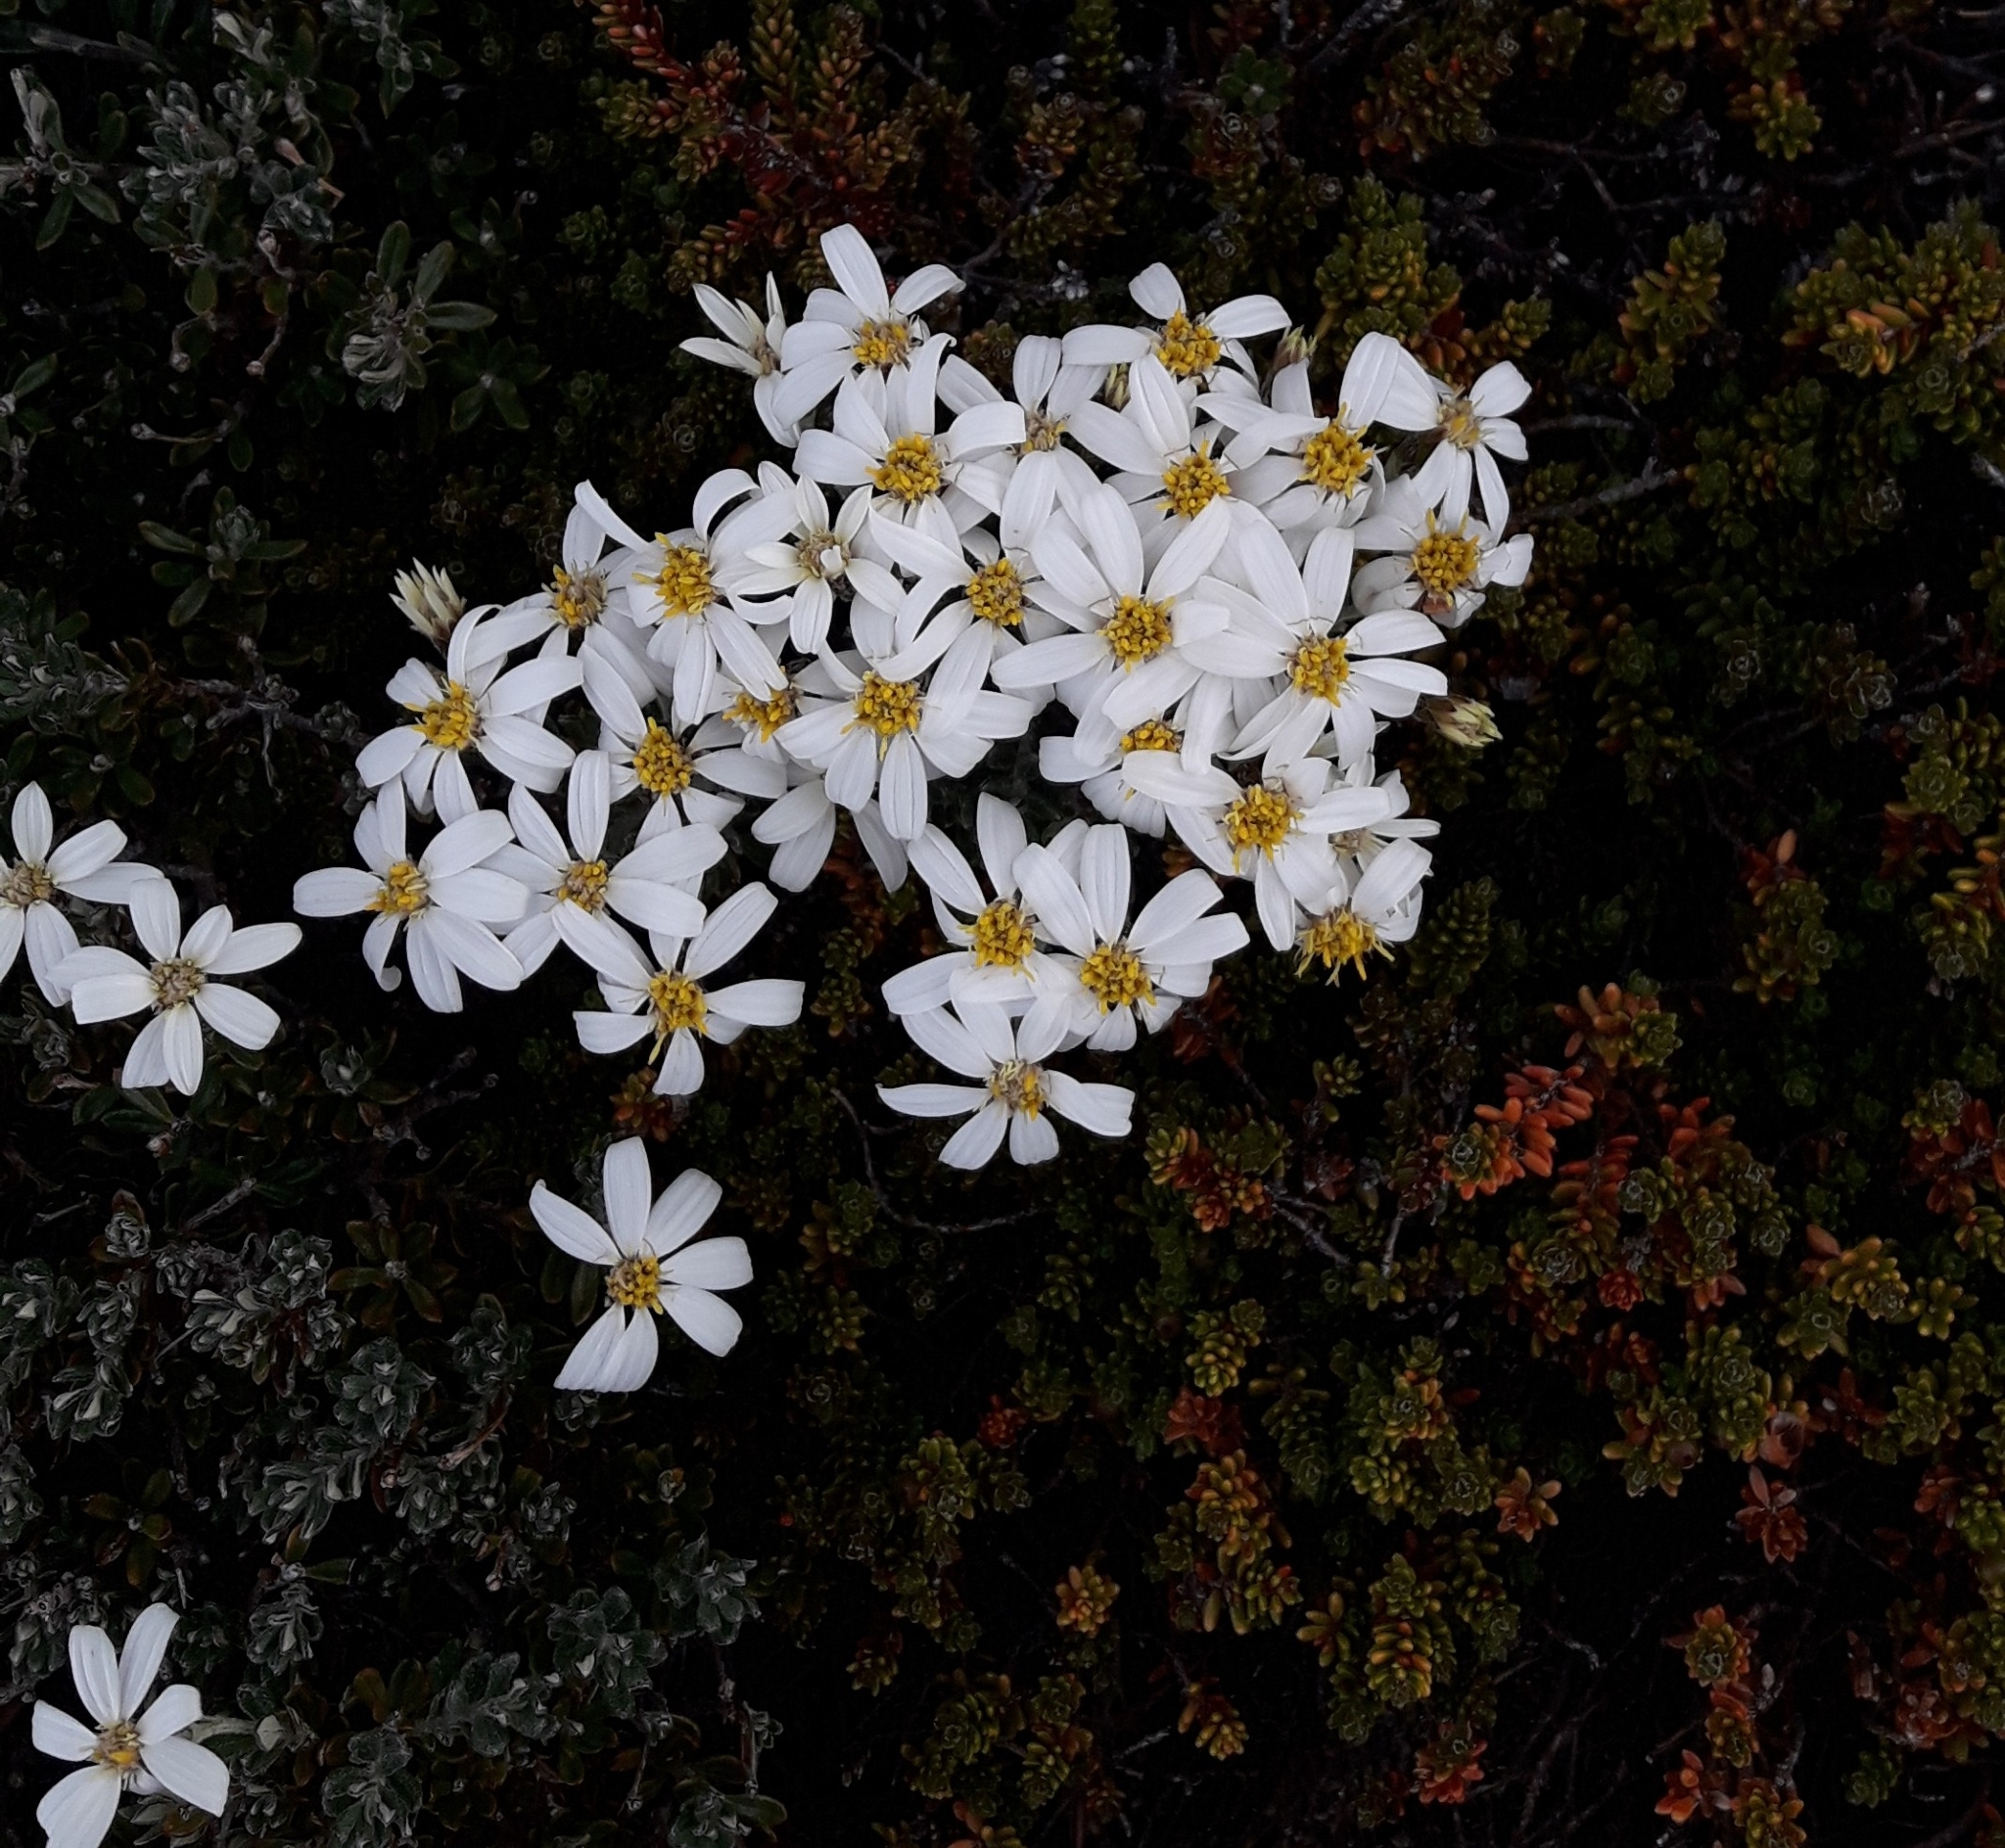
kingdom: Plantae
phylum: Tracheophyta
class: Magnoliopsida
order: Asterales
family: Asteraceae
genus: Chiliotrichum
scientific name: Chiliotrichum diffusum
